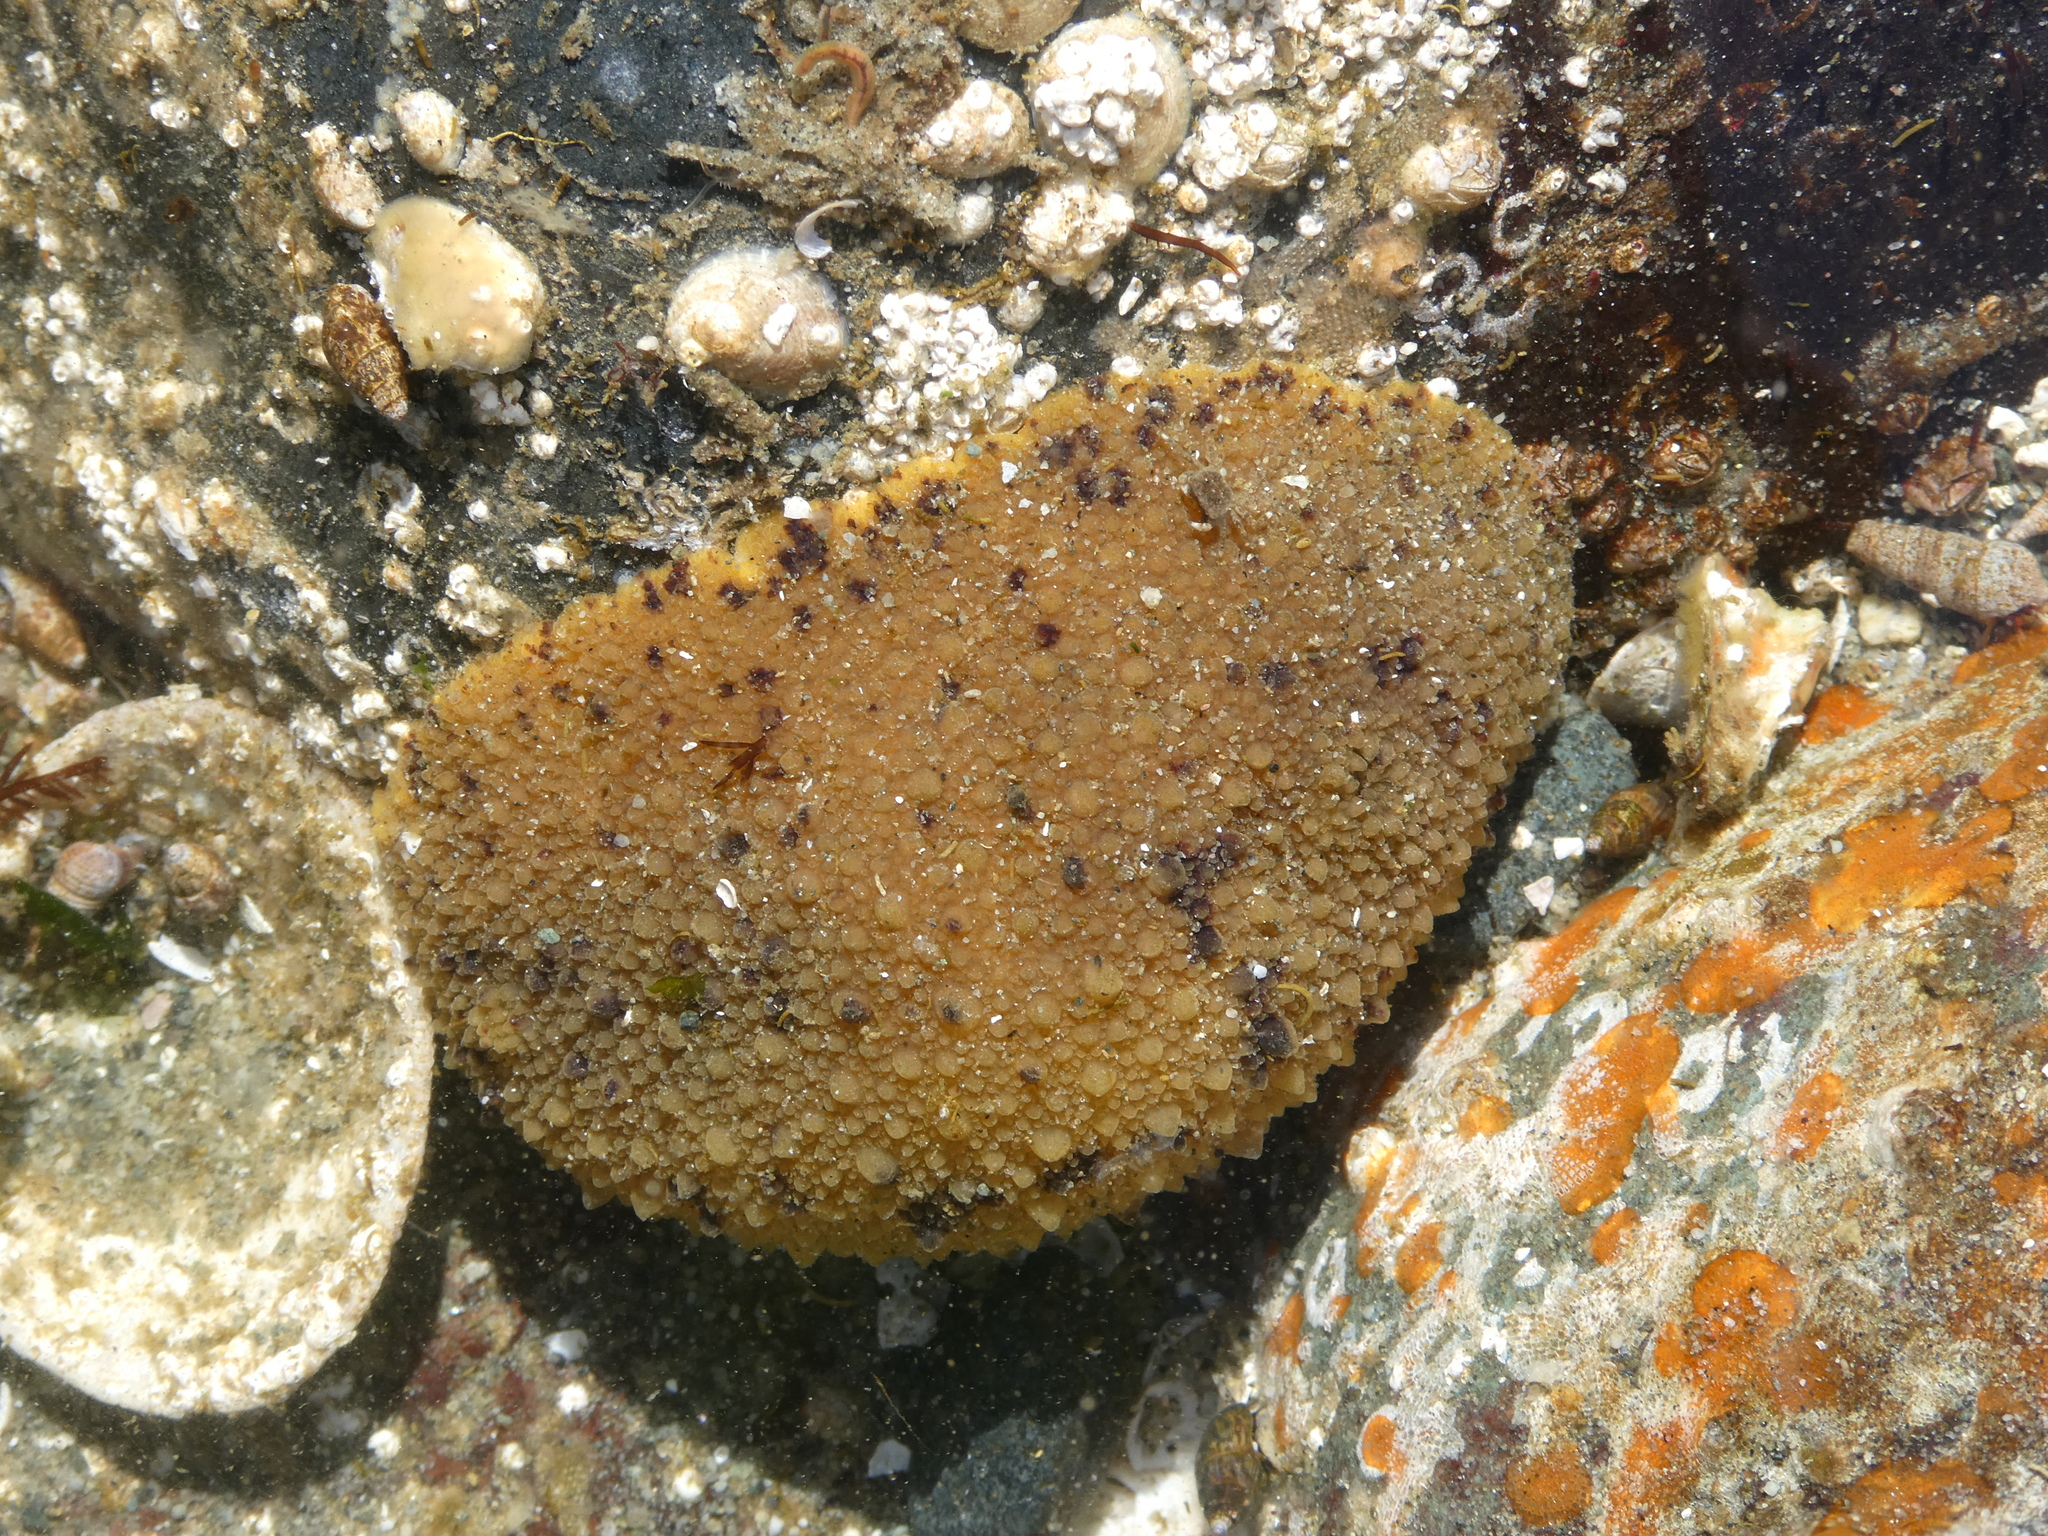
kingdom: Animalia
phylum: Mollusca
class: Gastropoda
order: Nudibranchia
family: Dorididae
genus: Doris
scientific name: Doris montereyensis
